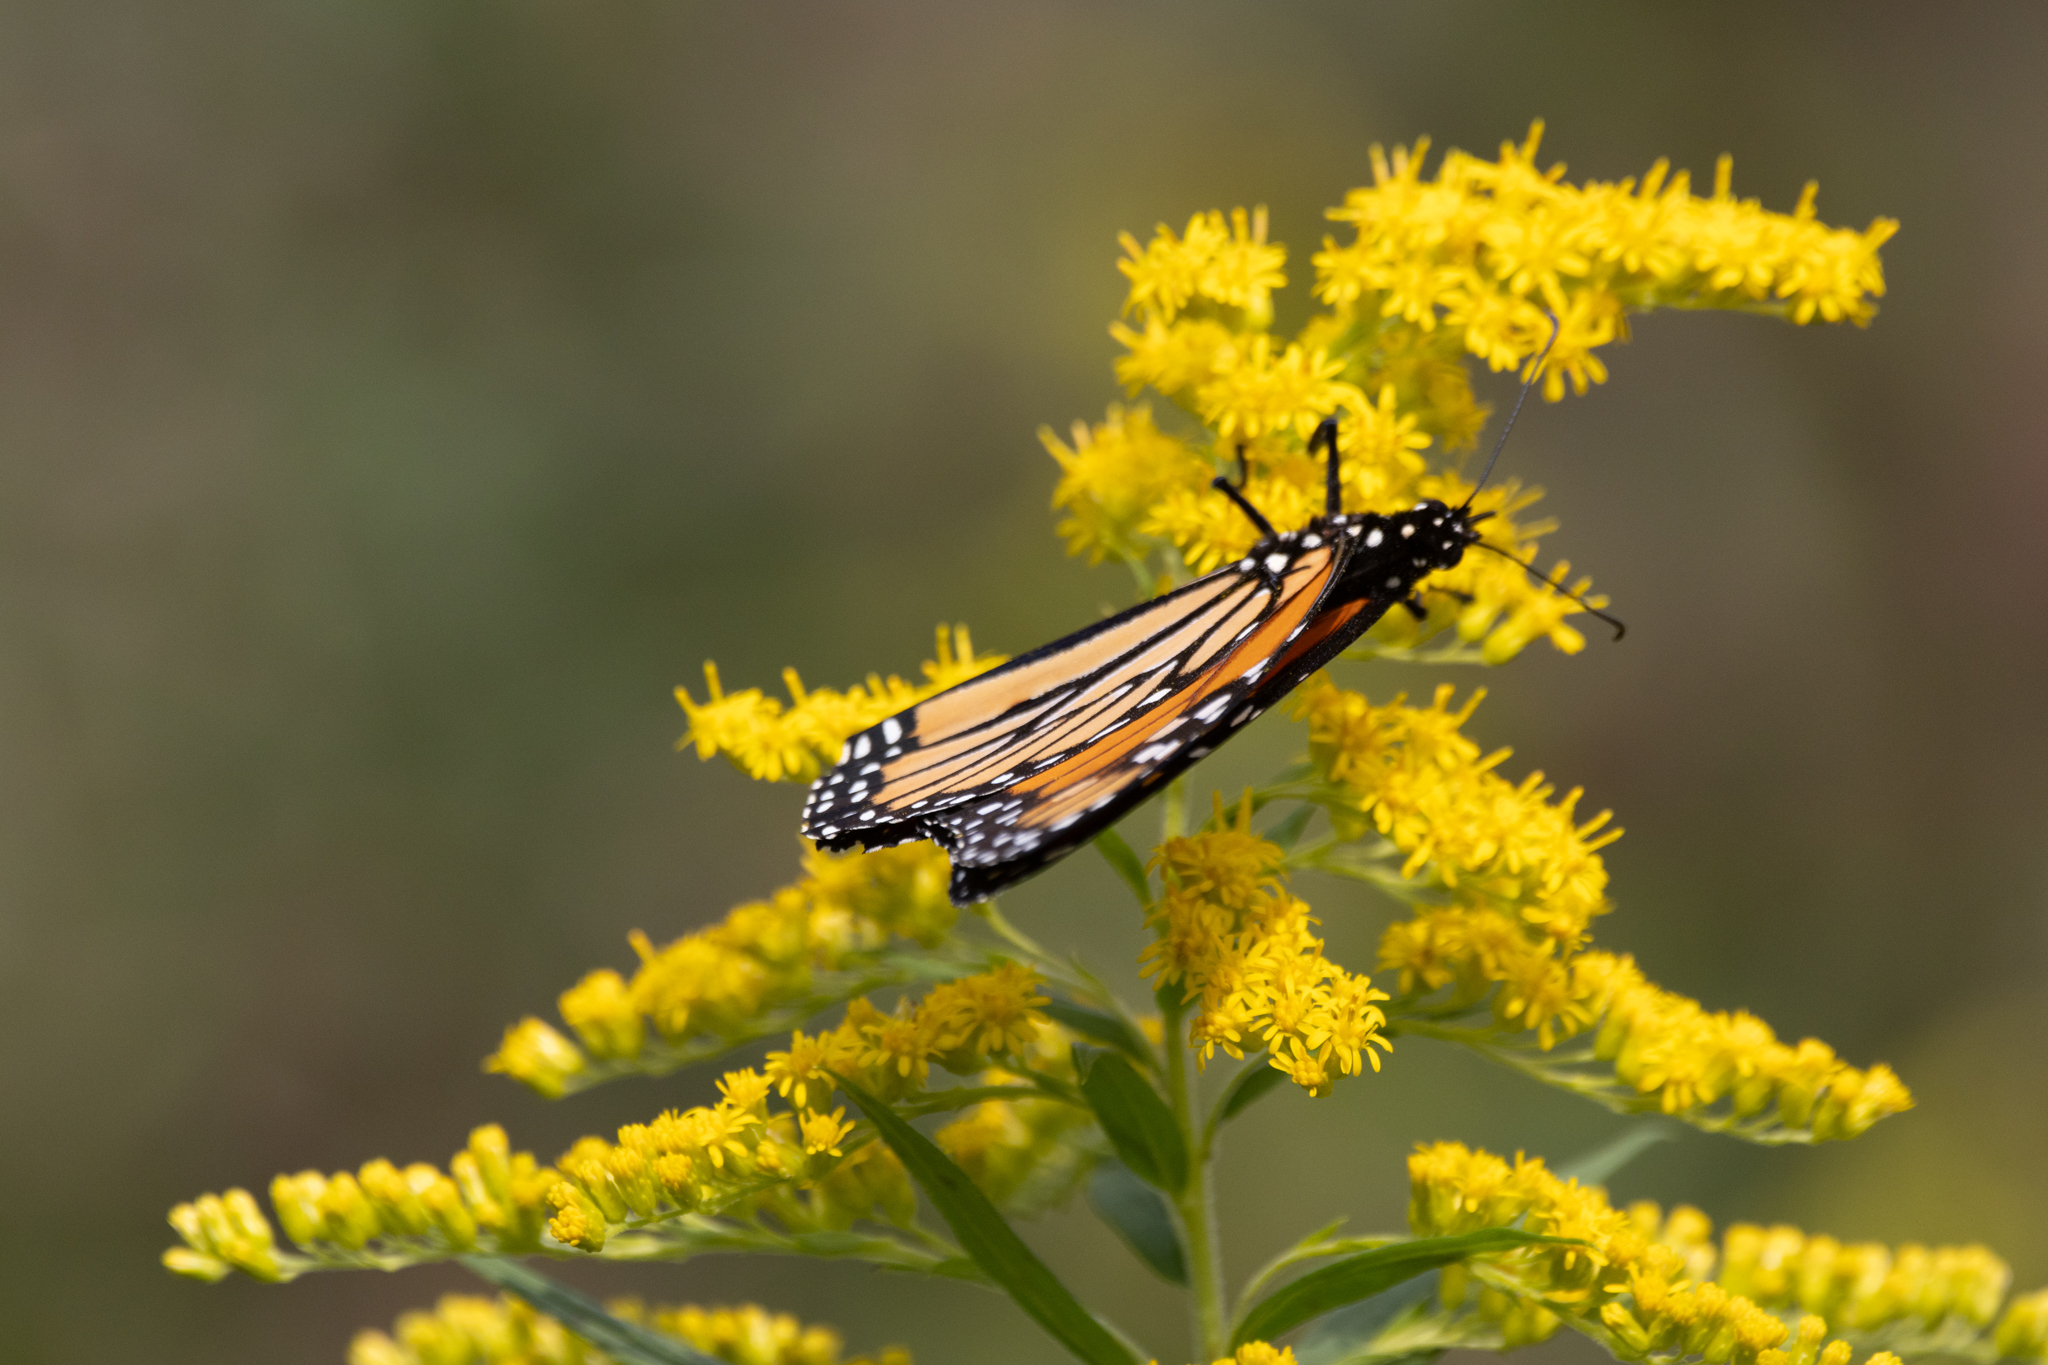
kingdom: Animalia
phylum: Arthropoda
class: Insecta
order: Lepidoptera
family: Nymphalidae
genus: Danaus
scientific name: Danaus plexippus
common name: Monarch
